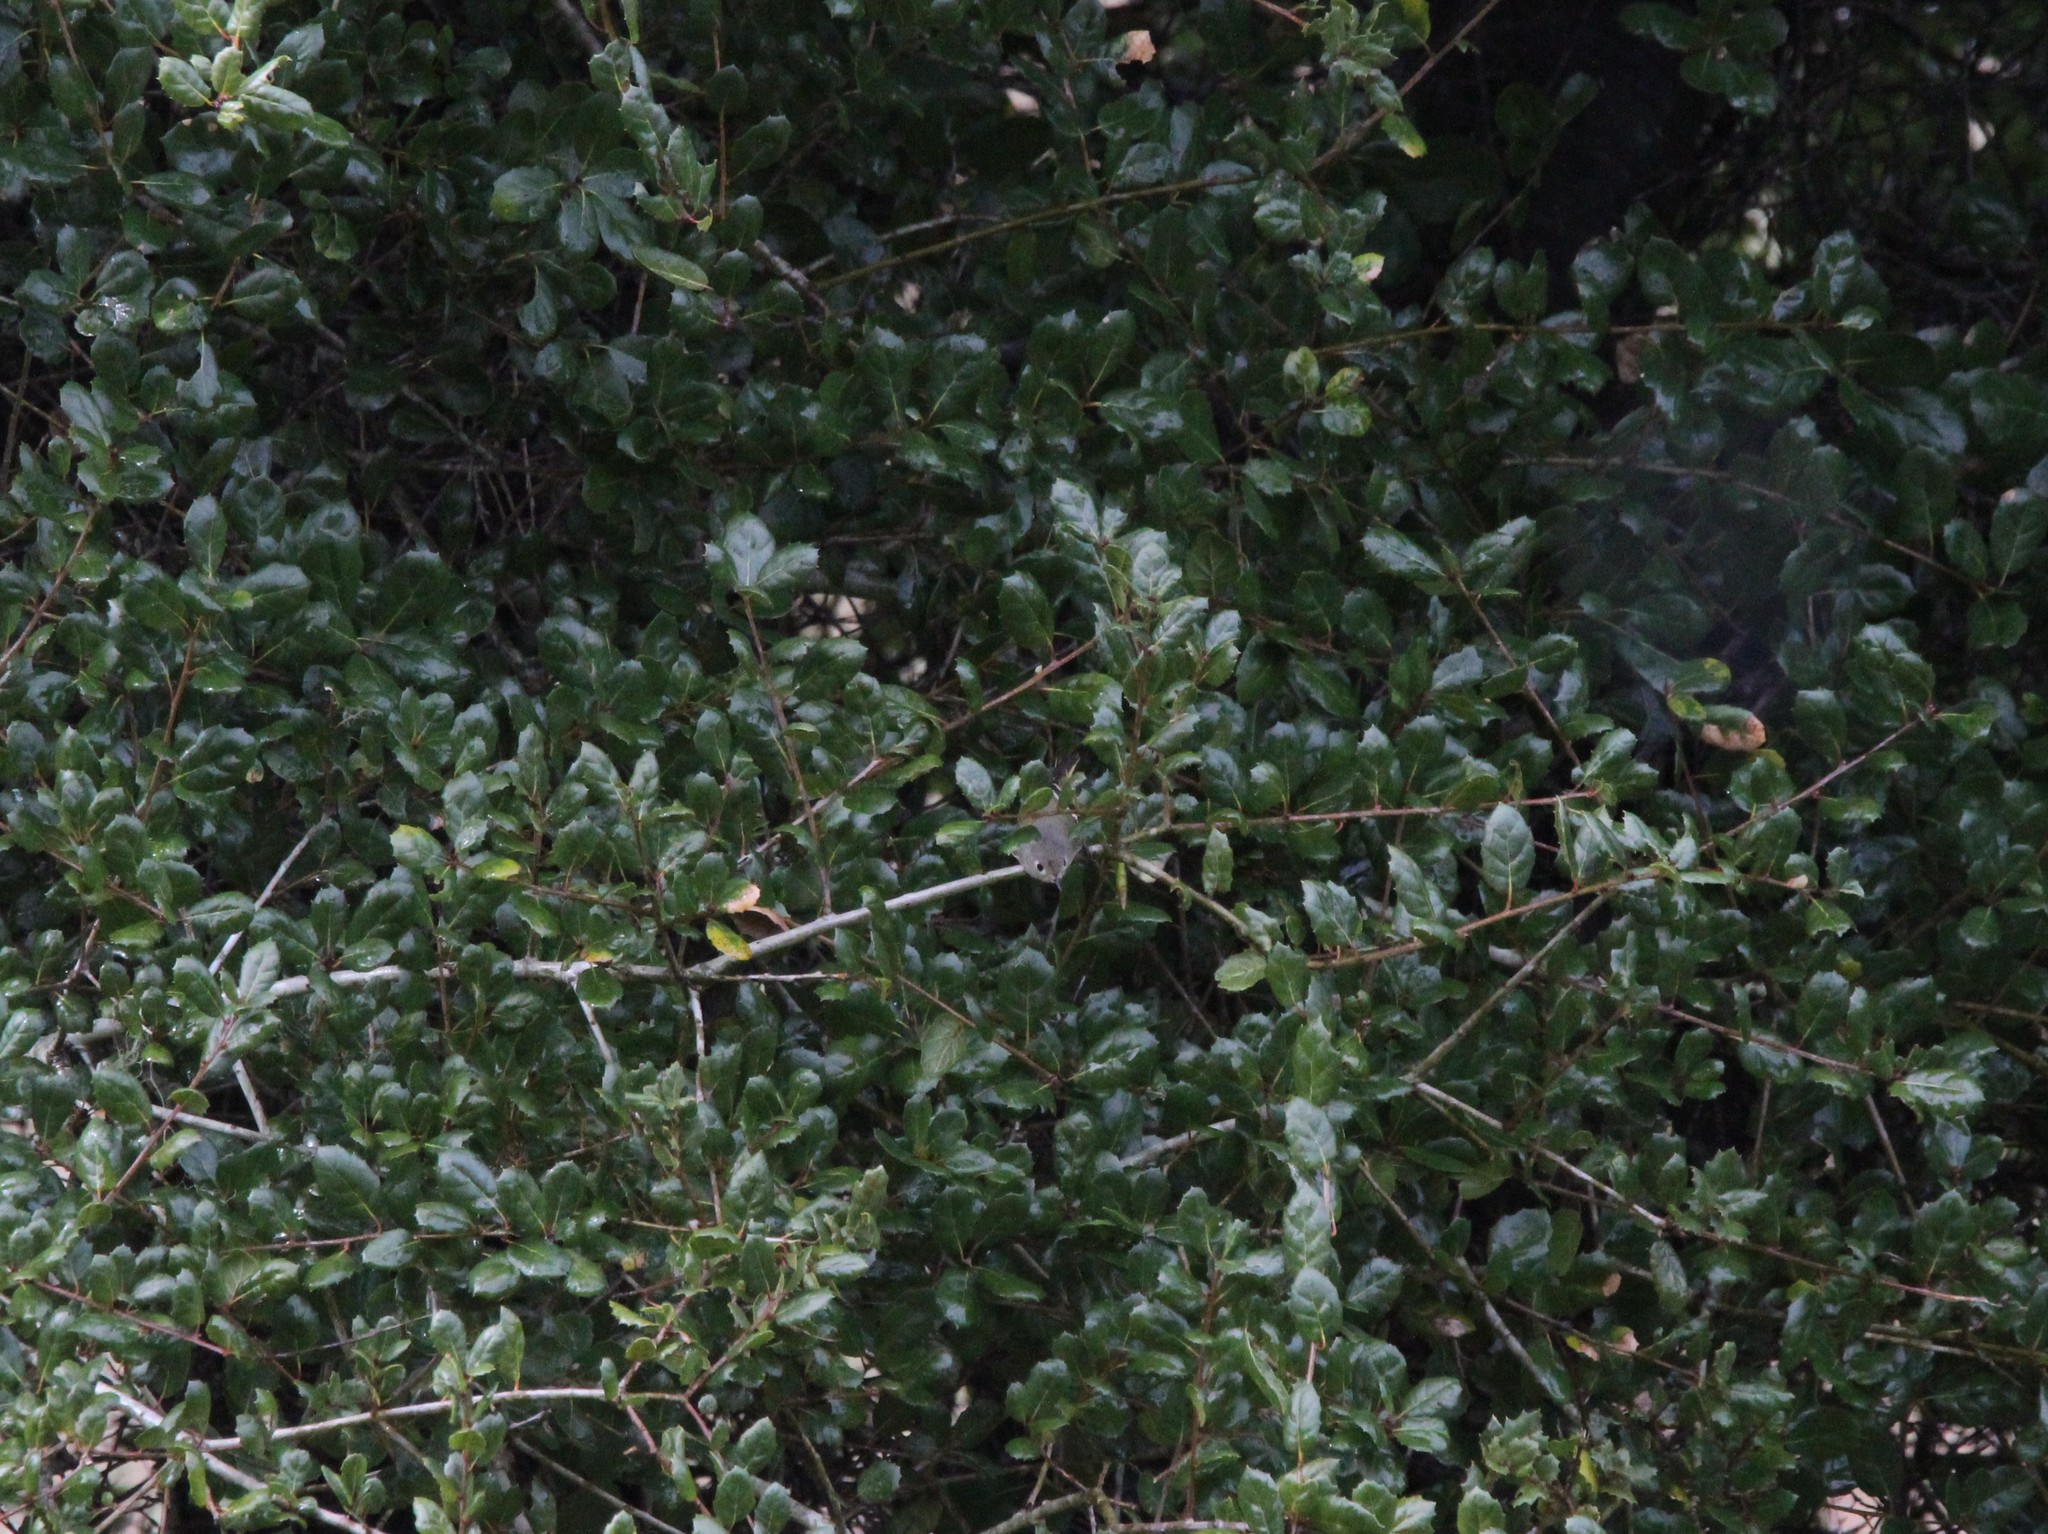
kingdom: Animalia
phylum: Chordata
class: Aves
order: Passeriformes
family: Regulidae
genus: Regulus
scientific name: Regulus calendula
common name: Ruby-crowned kinglet
